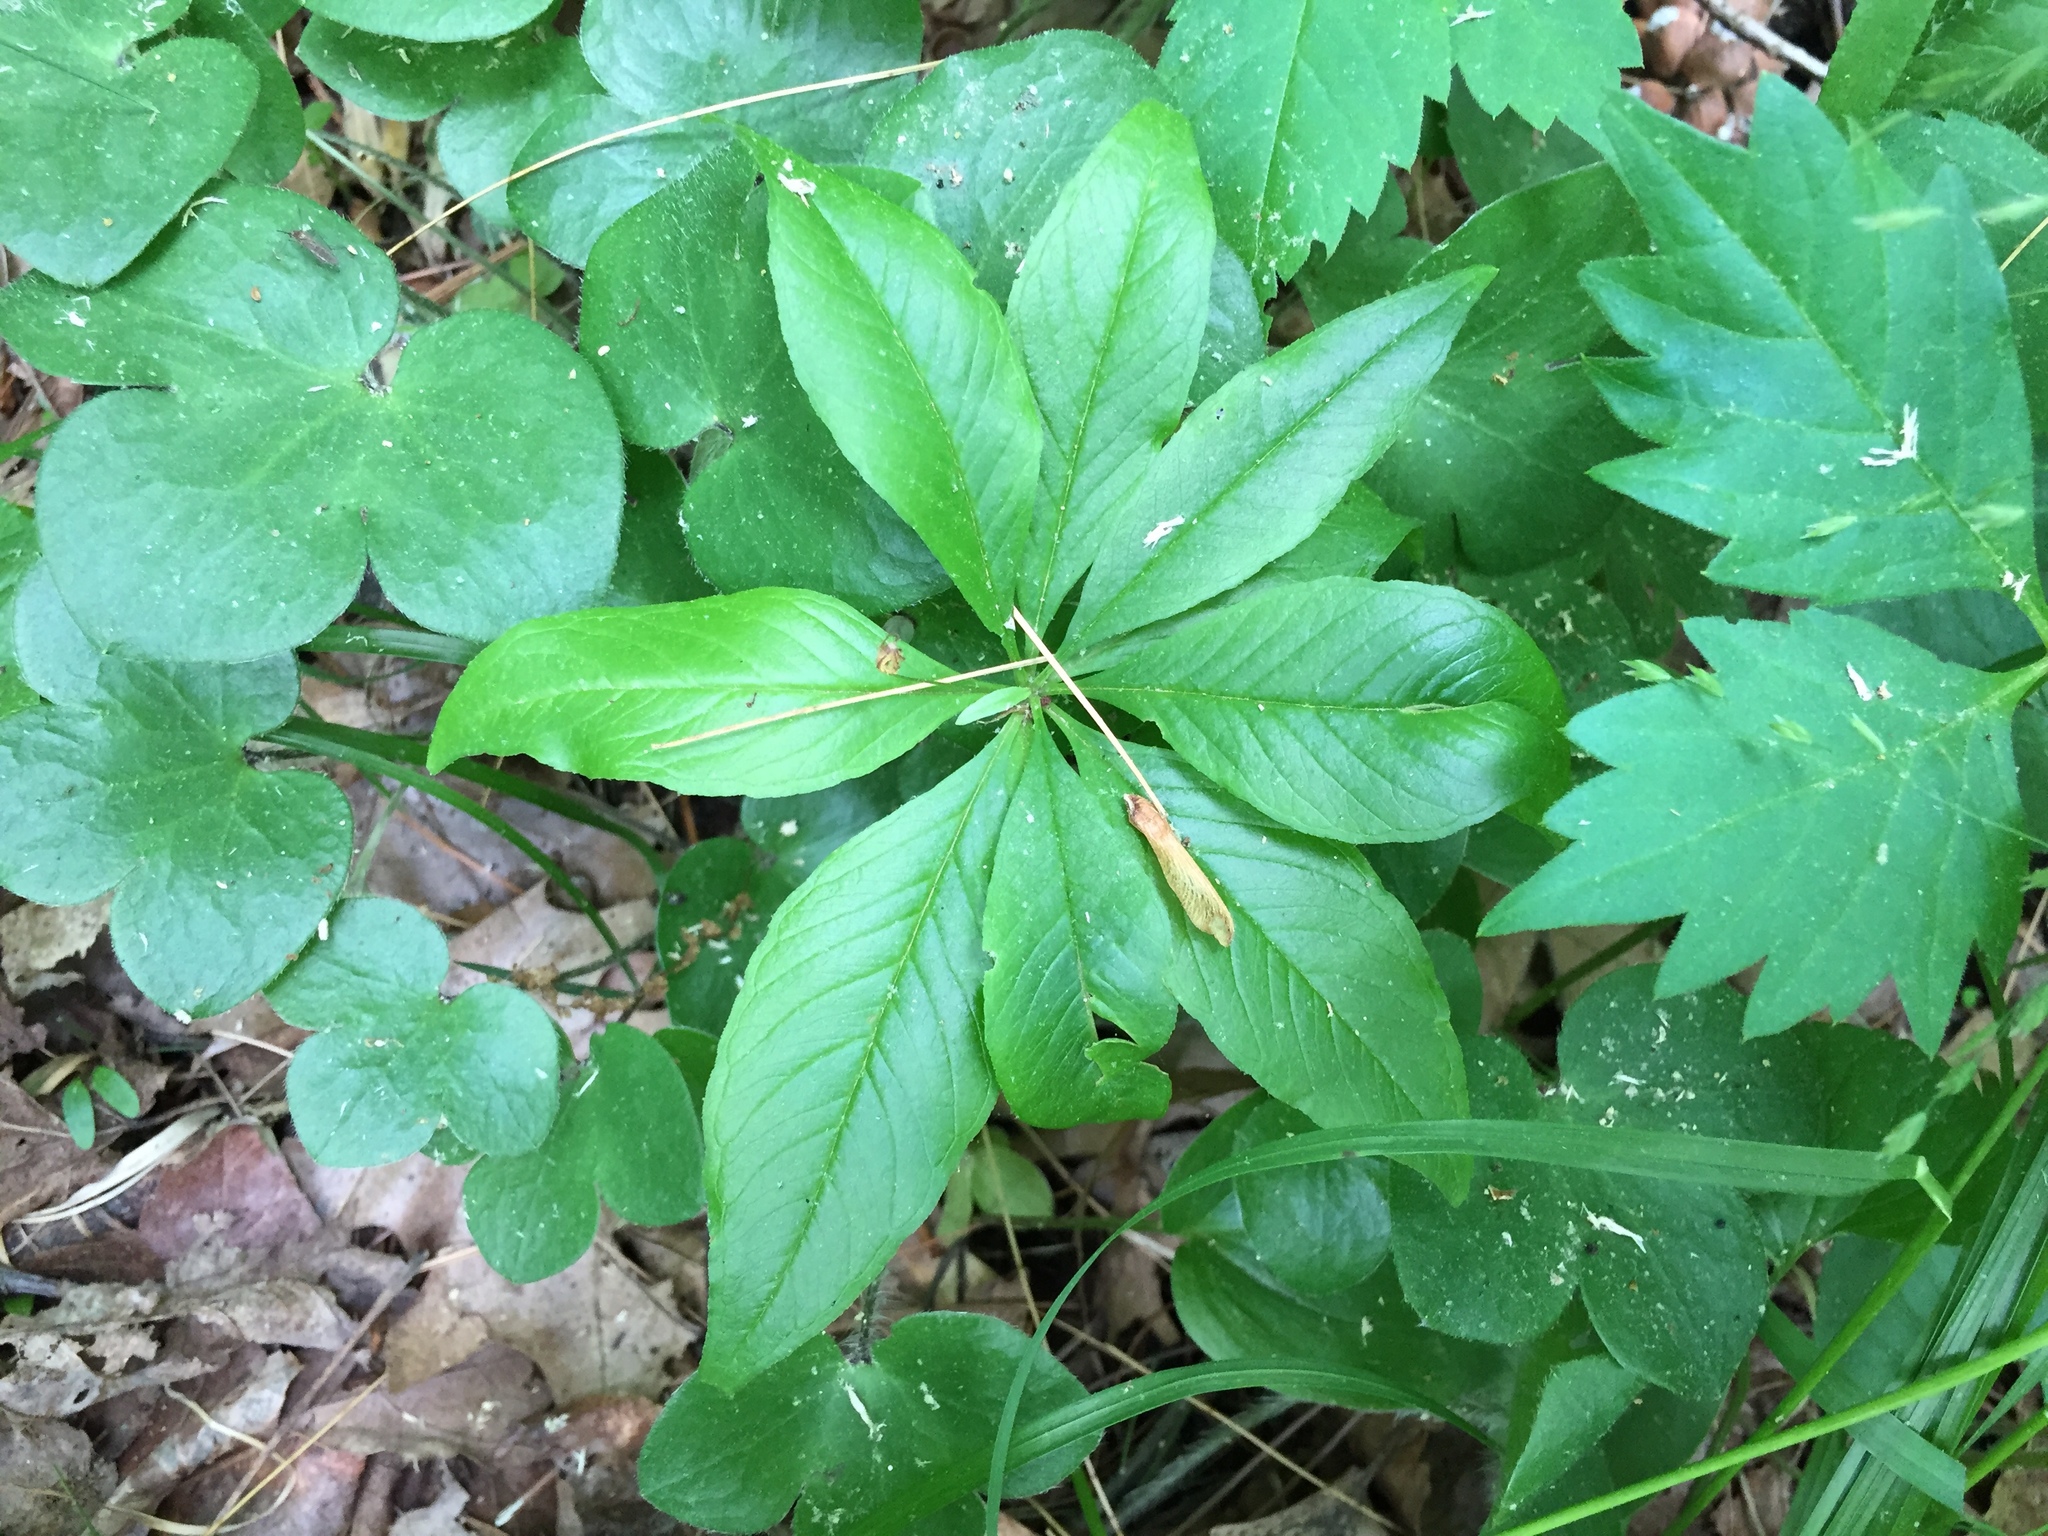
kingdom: Plantae
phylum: Tracheophyta
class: Magnoliopsida
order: Ericales
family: Primulaceae
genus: Lysimachia
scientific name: Lysimachia borealis
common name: American starflower
